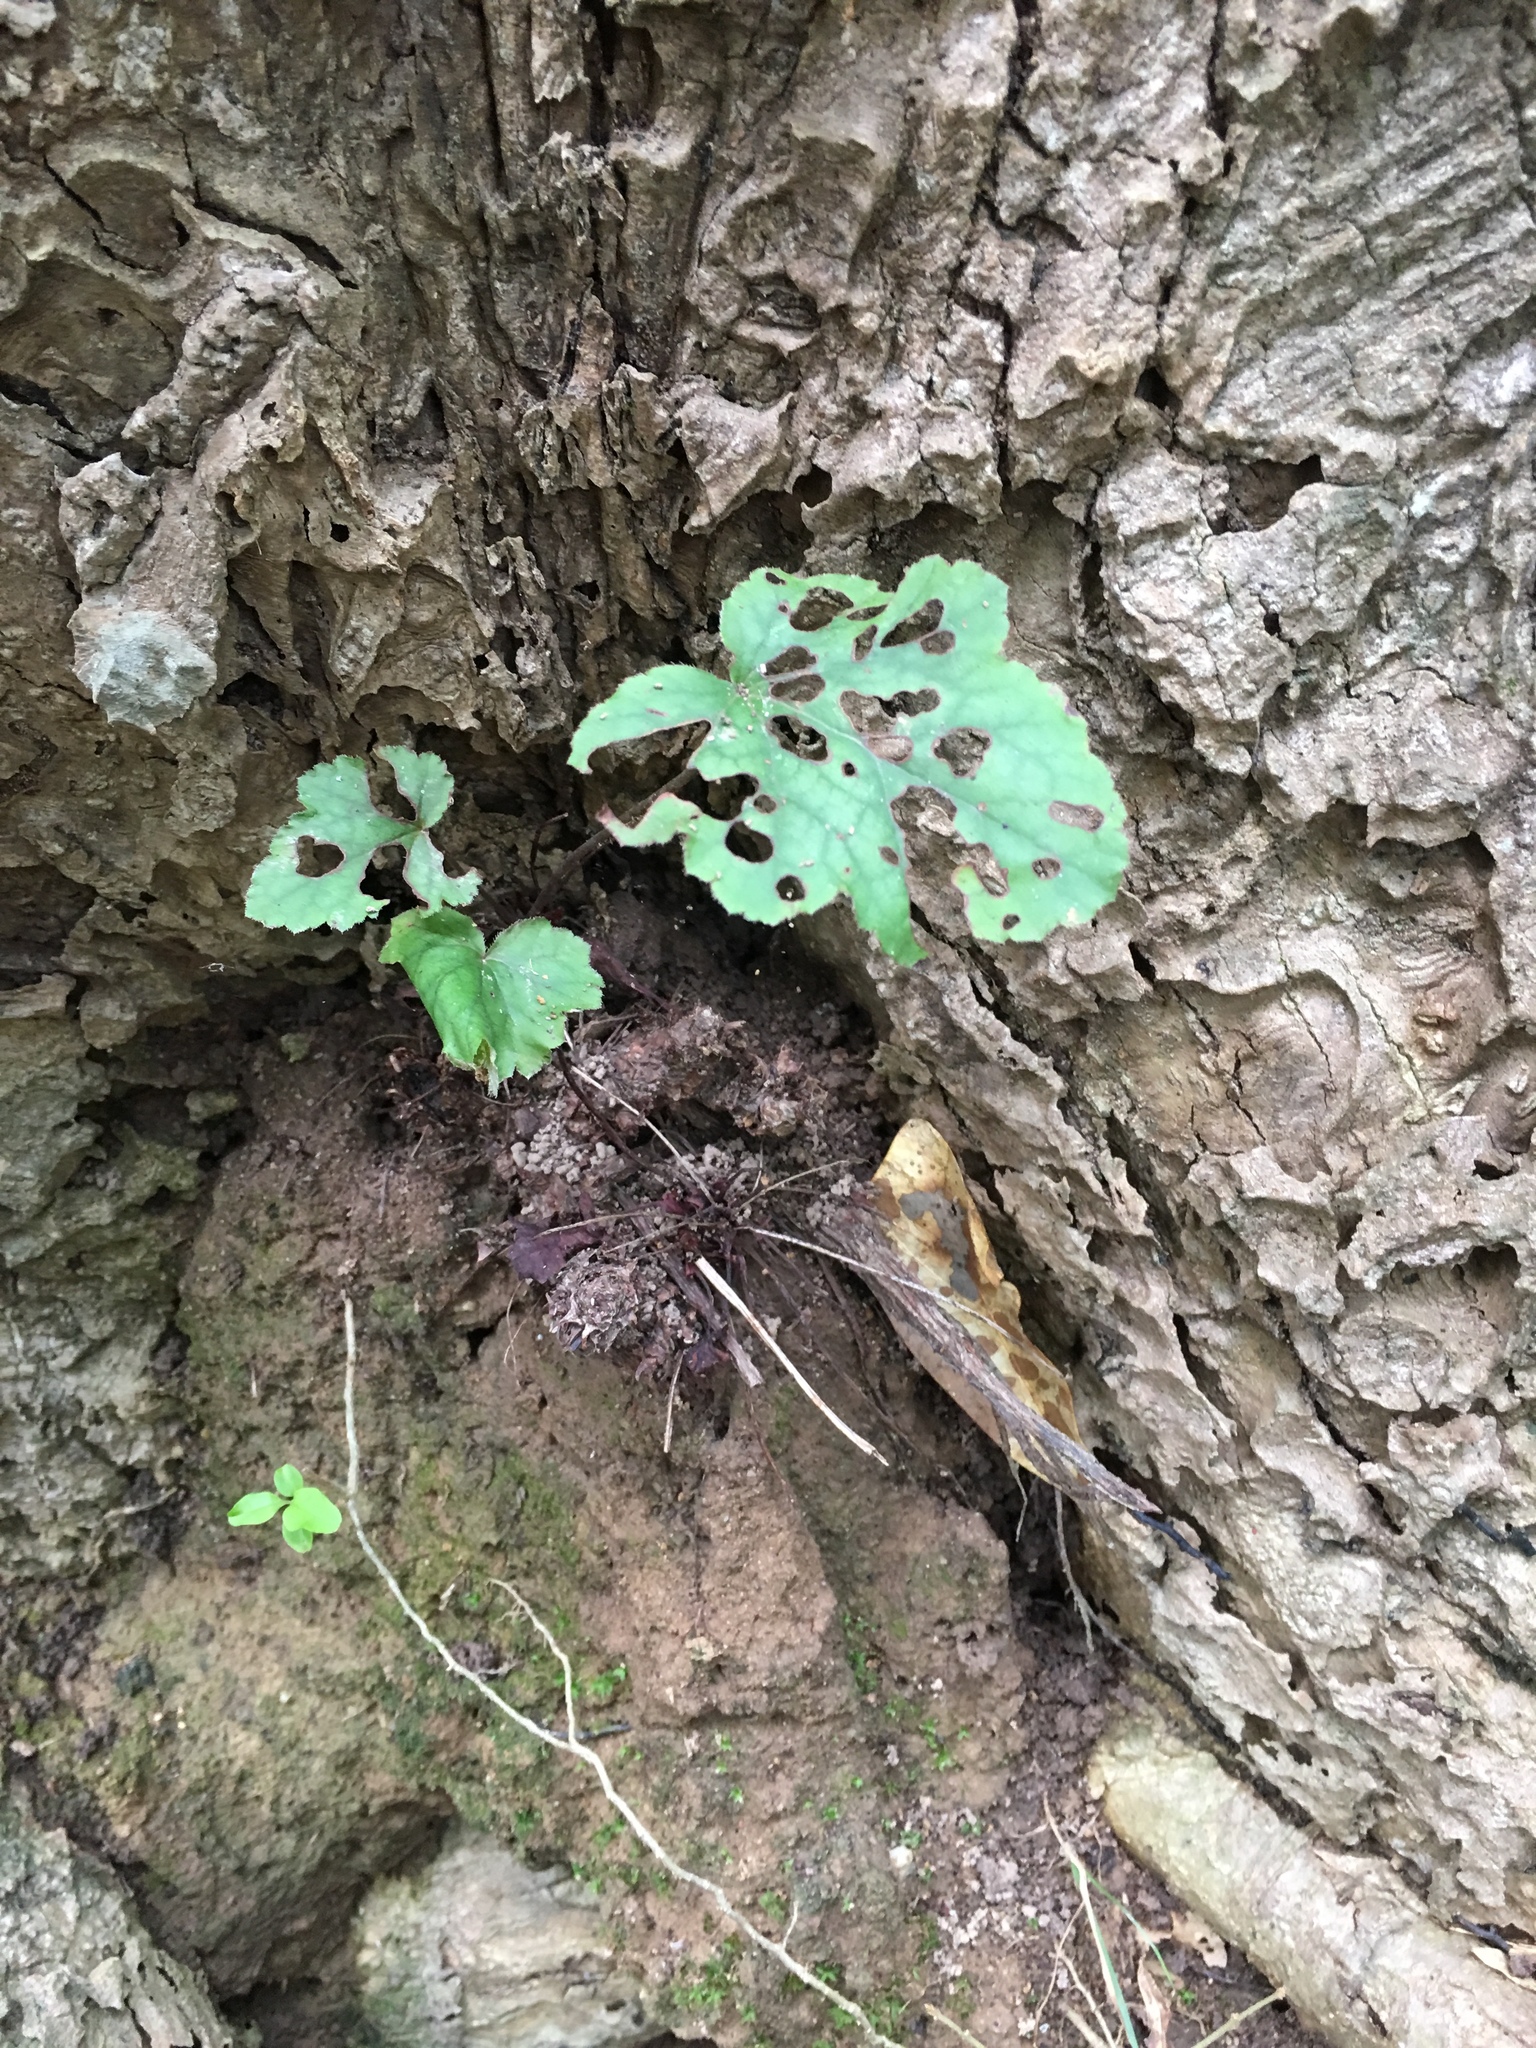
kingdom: Plantae
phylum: Tracheophyta
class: Magnoliopsida
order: Saxifragales
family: Saxifragaceae
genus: Heuchera
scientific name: Heuchera caroliniana
